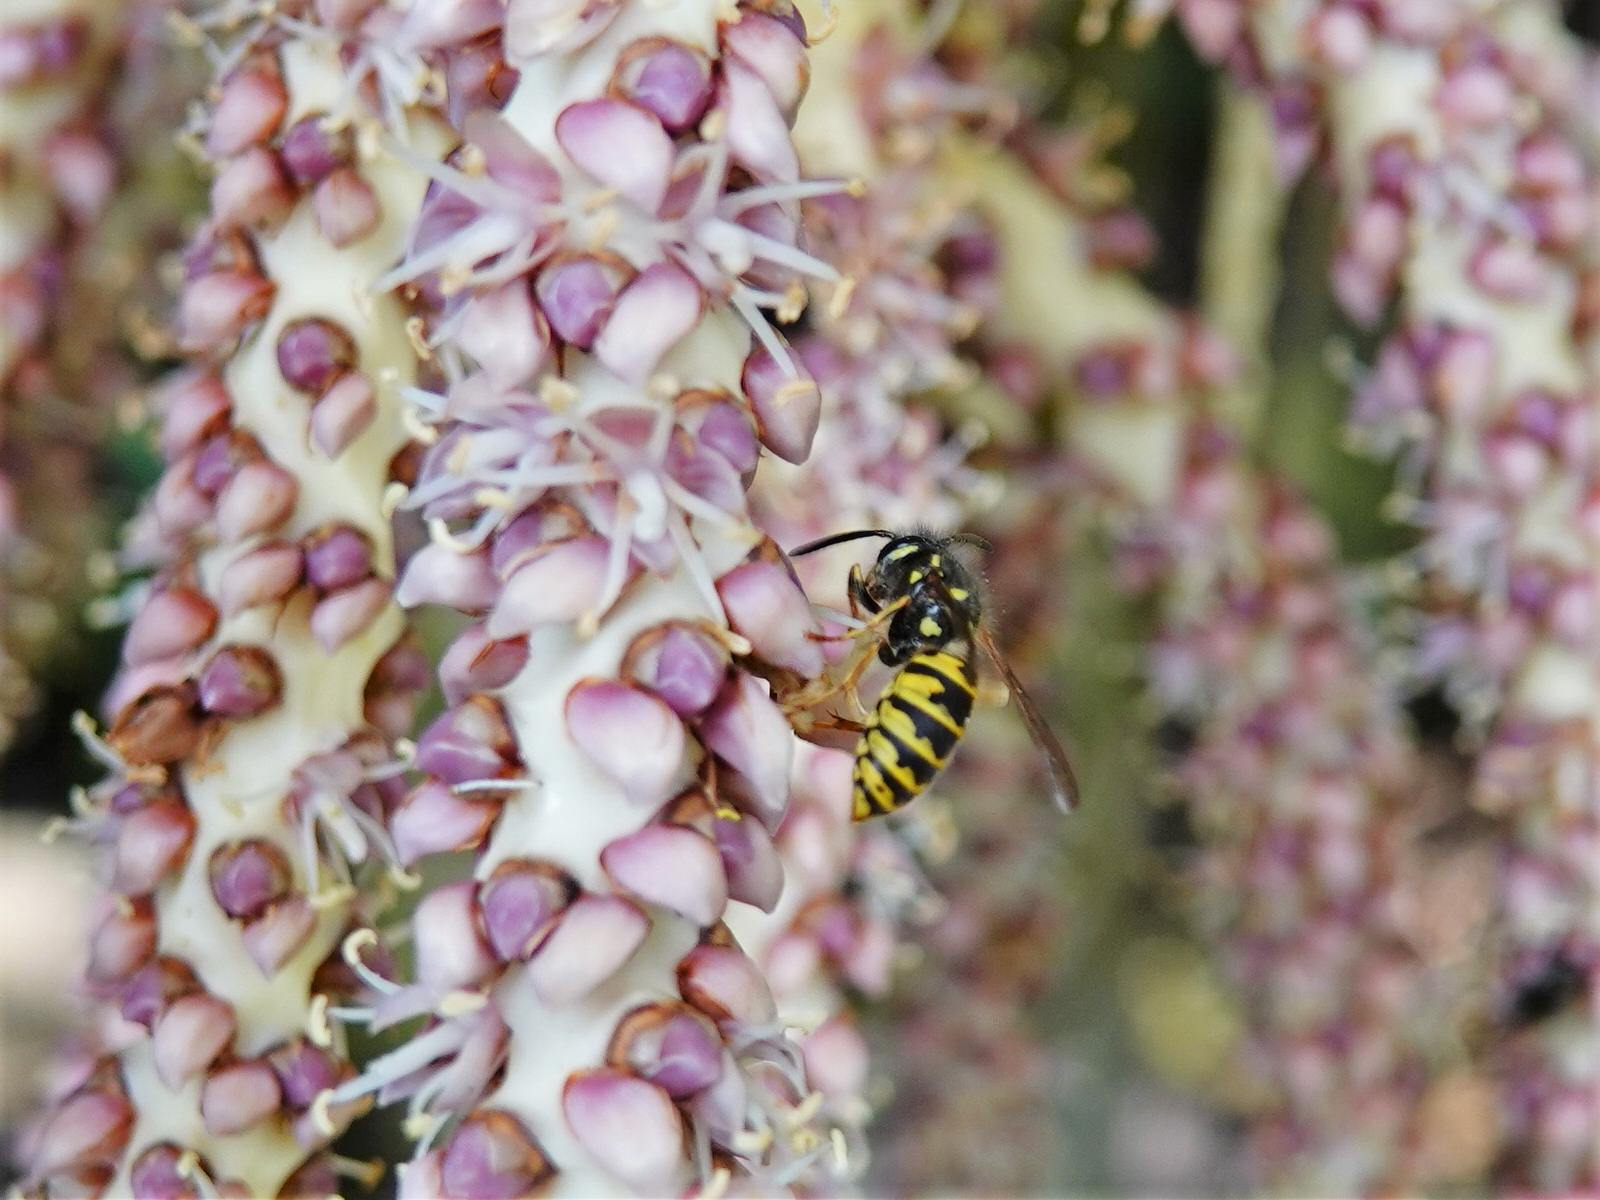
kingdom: Animalia
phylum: Arthropoda
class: Insecta
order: Hymenoptera
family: Vespidae
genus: Vespula
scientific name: Vespula vulgaris
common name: Common wasp
